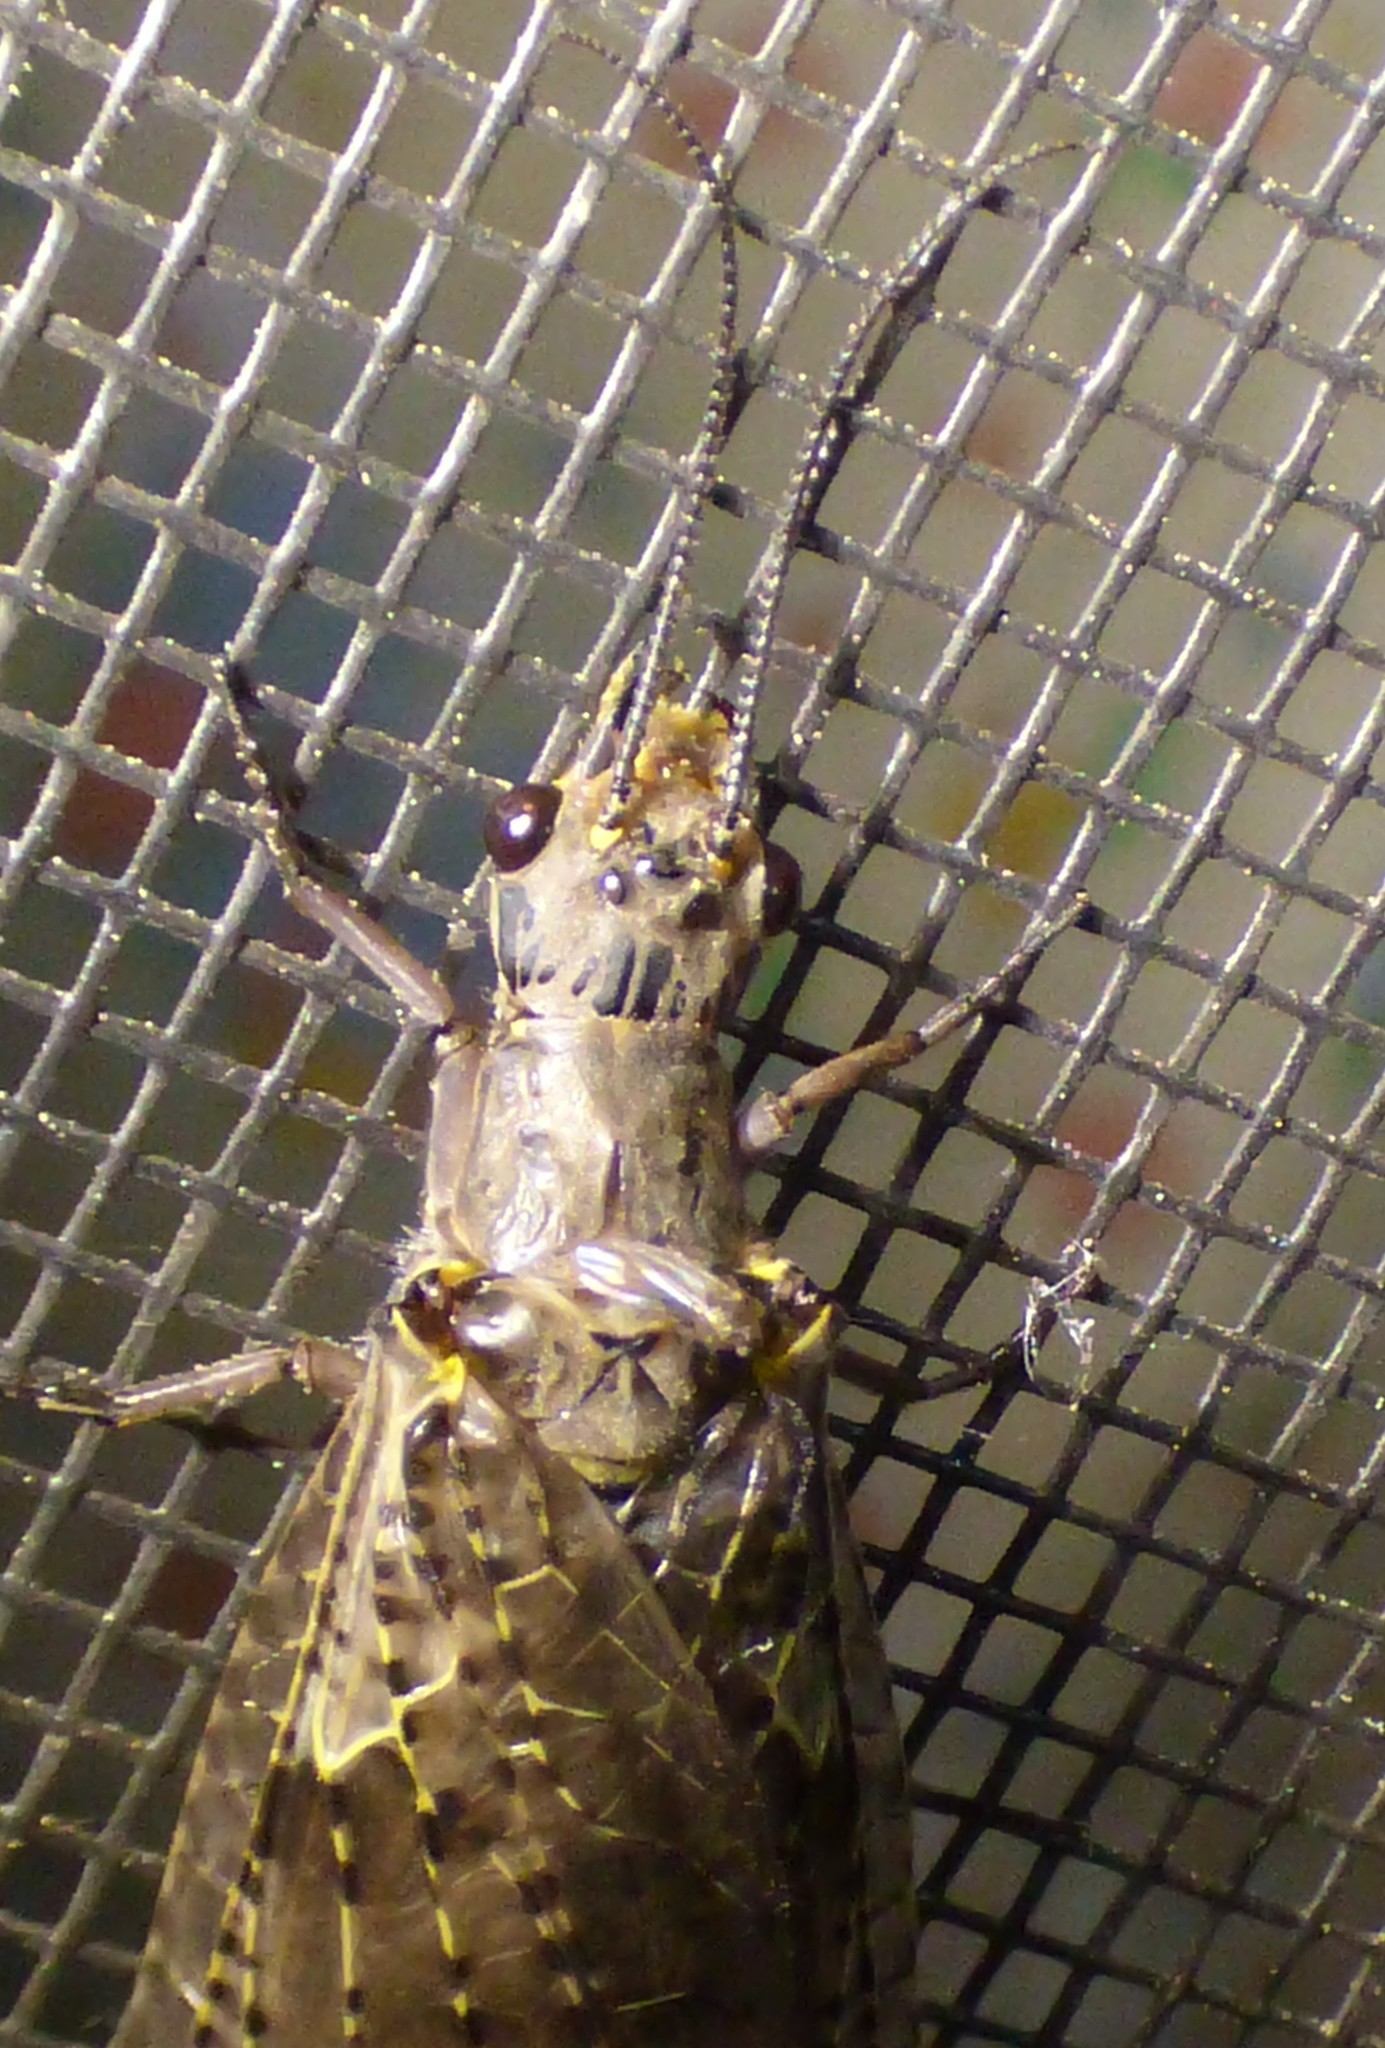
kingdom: Animalia
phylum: Arthropoda
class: Insecta
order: Megaloptera
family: Corydalidae
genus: Chauliodes
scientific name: Chauliodes rastricornis
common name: Spring fishfly
